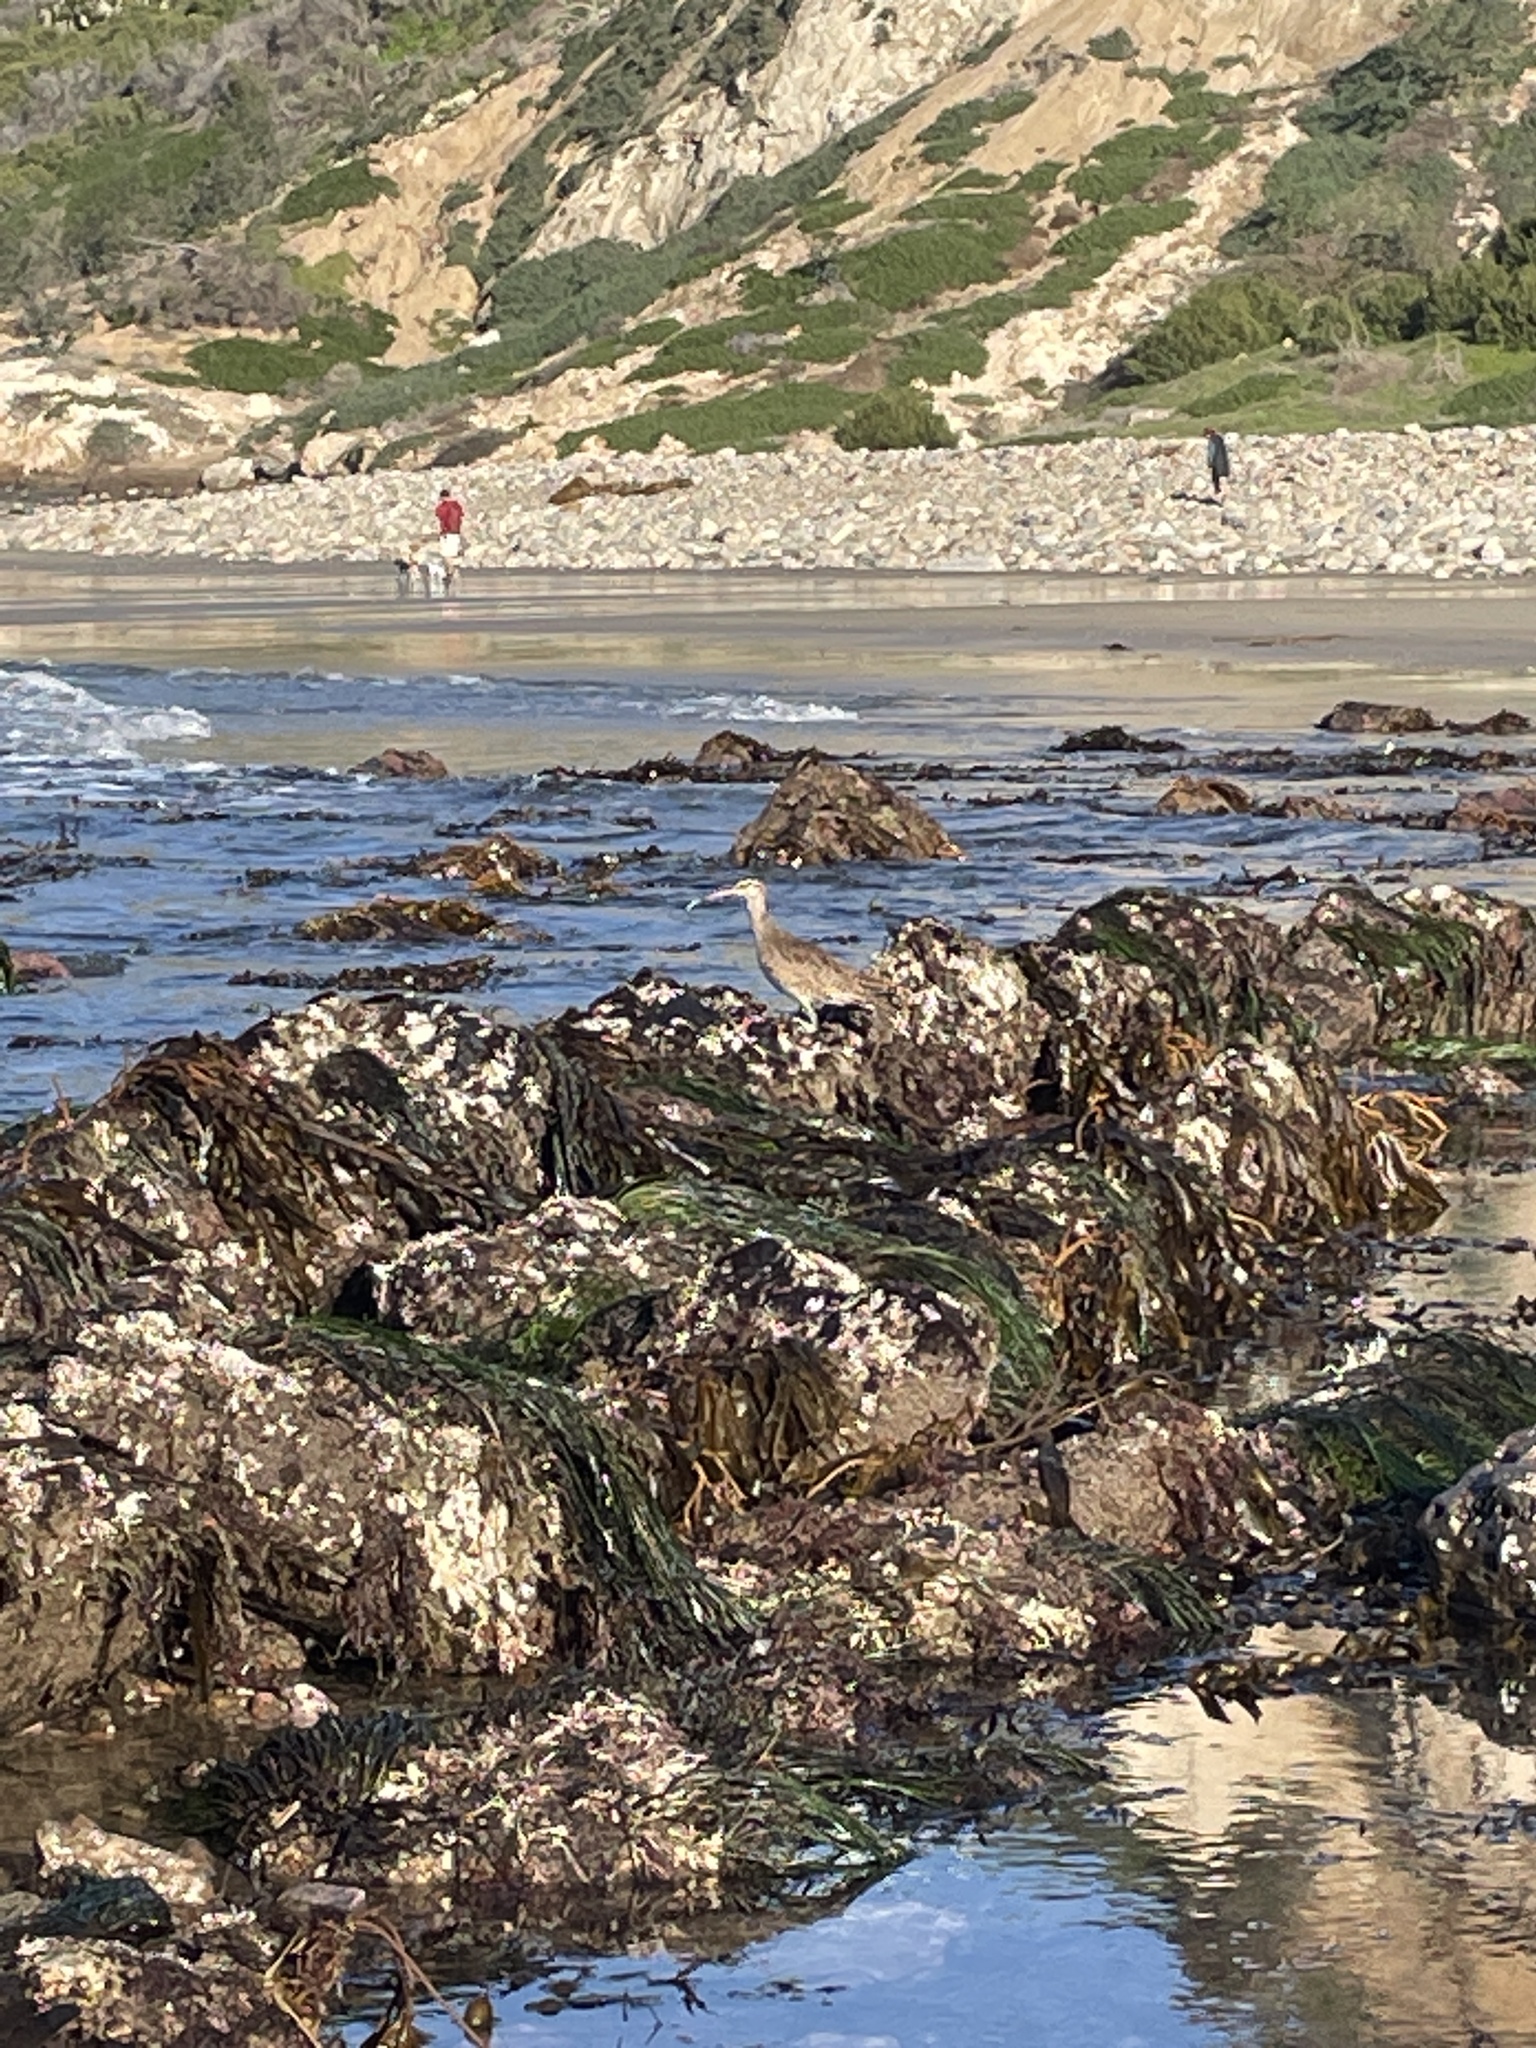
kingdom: Animalia
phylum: Chordata
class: Aves
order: Charadriiformes
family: Scolopacidae
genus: Numenius
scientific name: Numenius phaeopus
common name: Whimbrel
